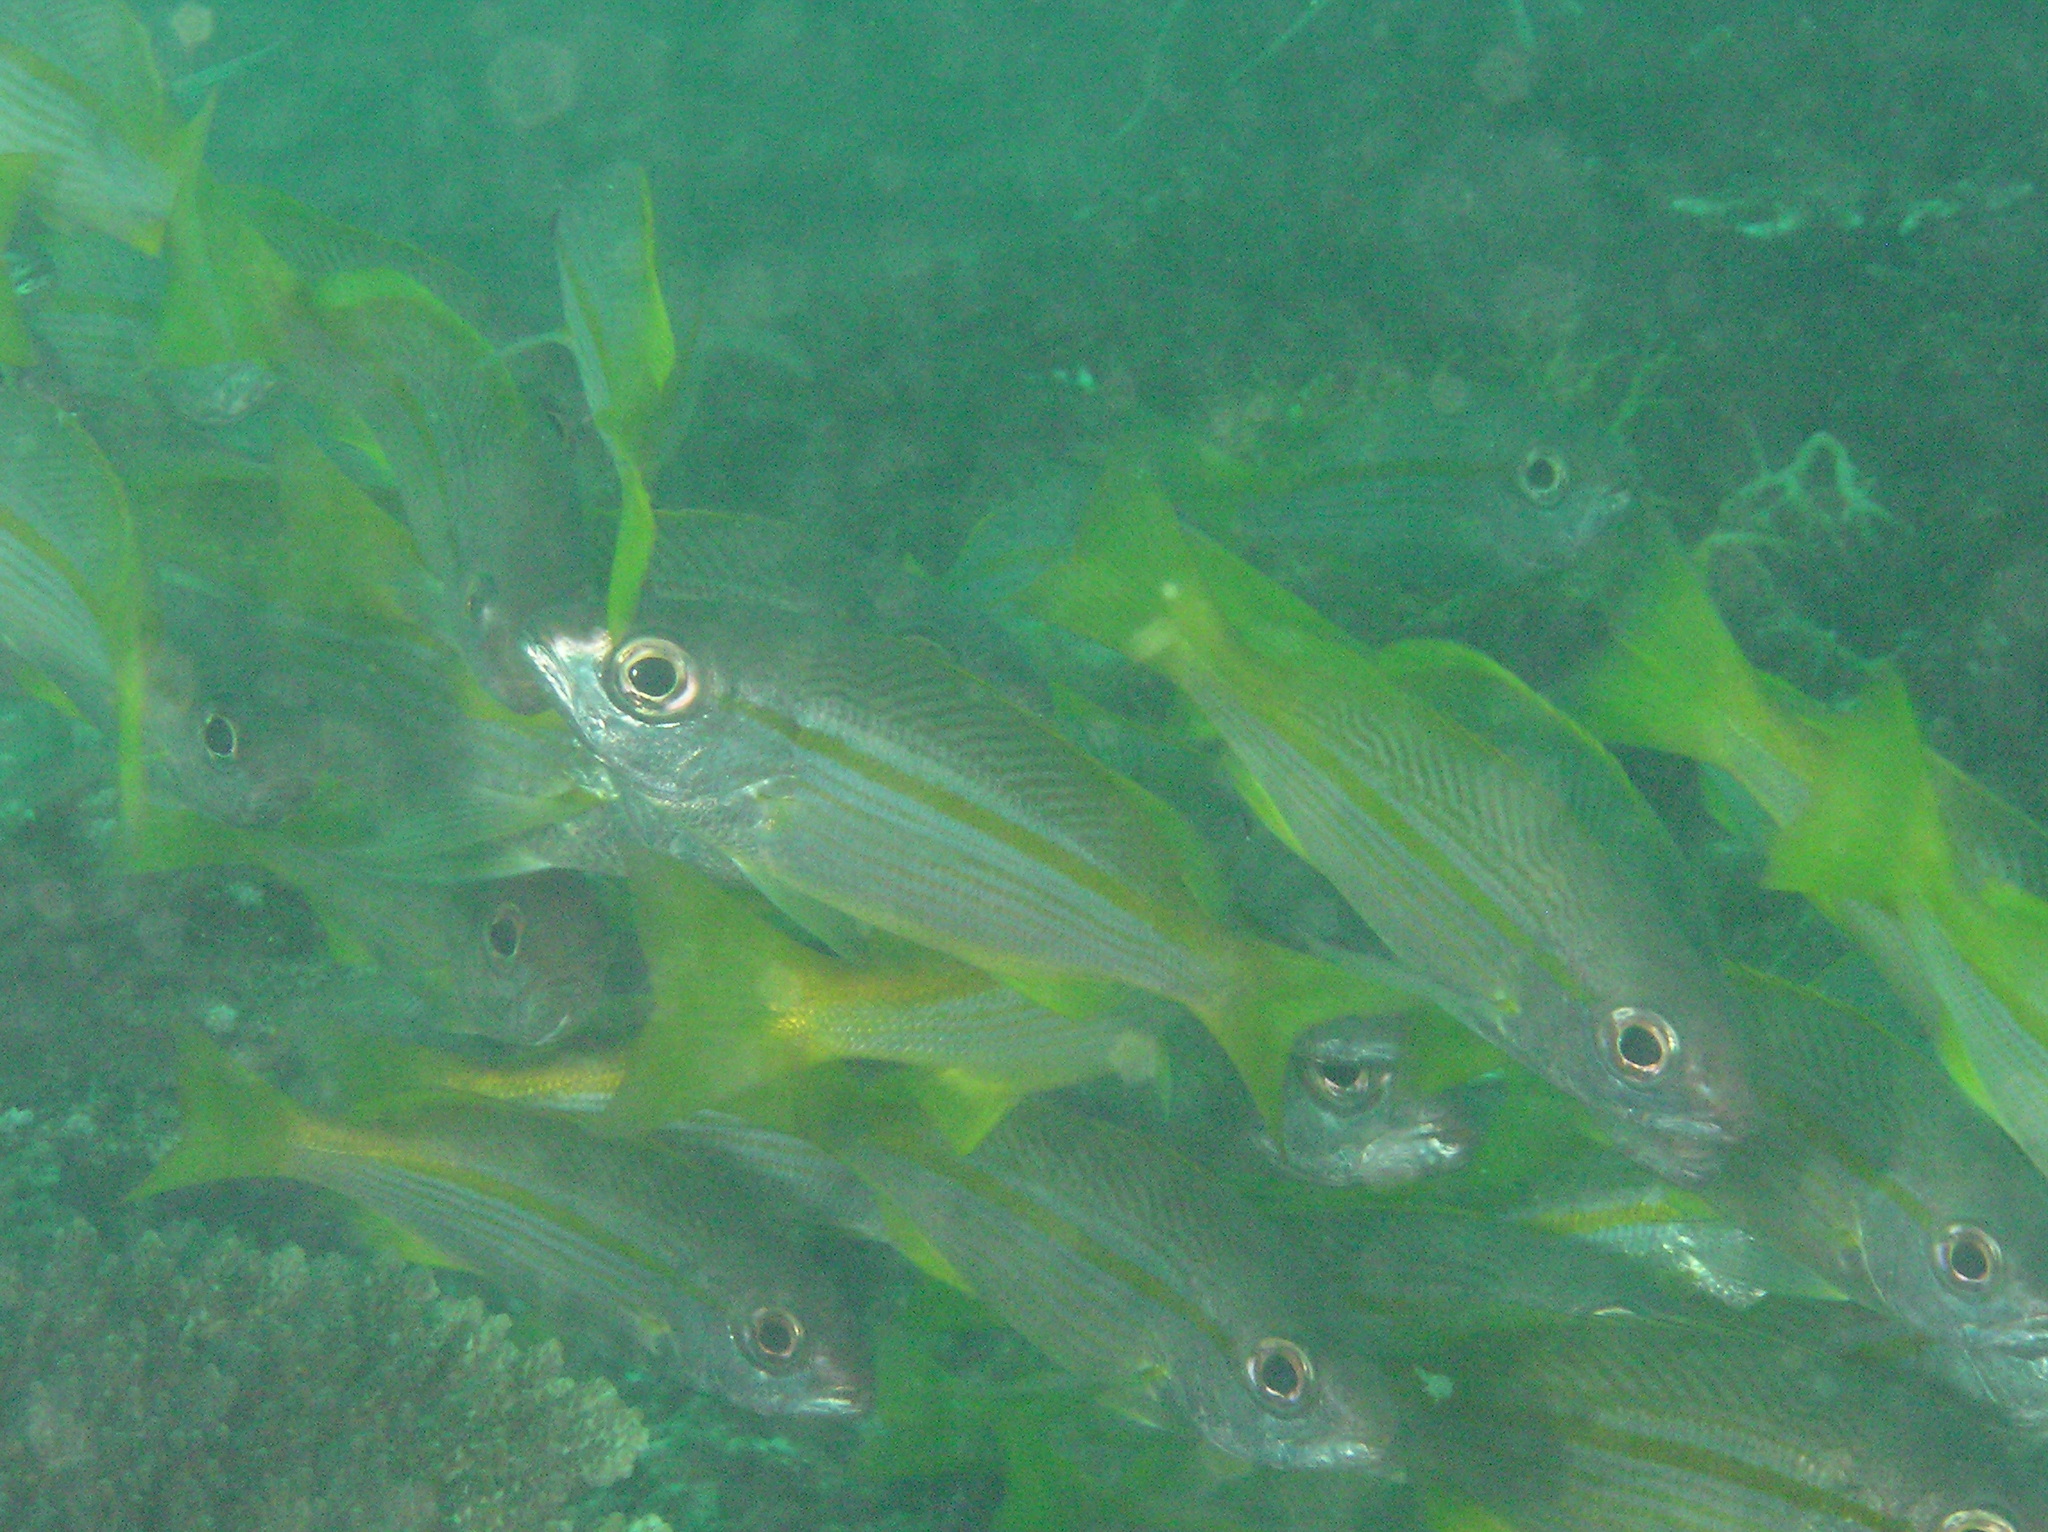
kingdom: Animalia
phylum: Chordata
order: Perciformes
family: Lutjanidae
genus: Lutjanus
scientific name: Lutjanus lutjanus
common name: Bigeye snapper
